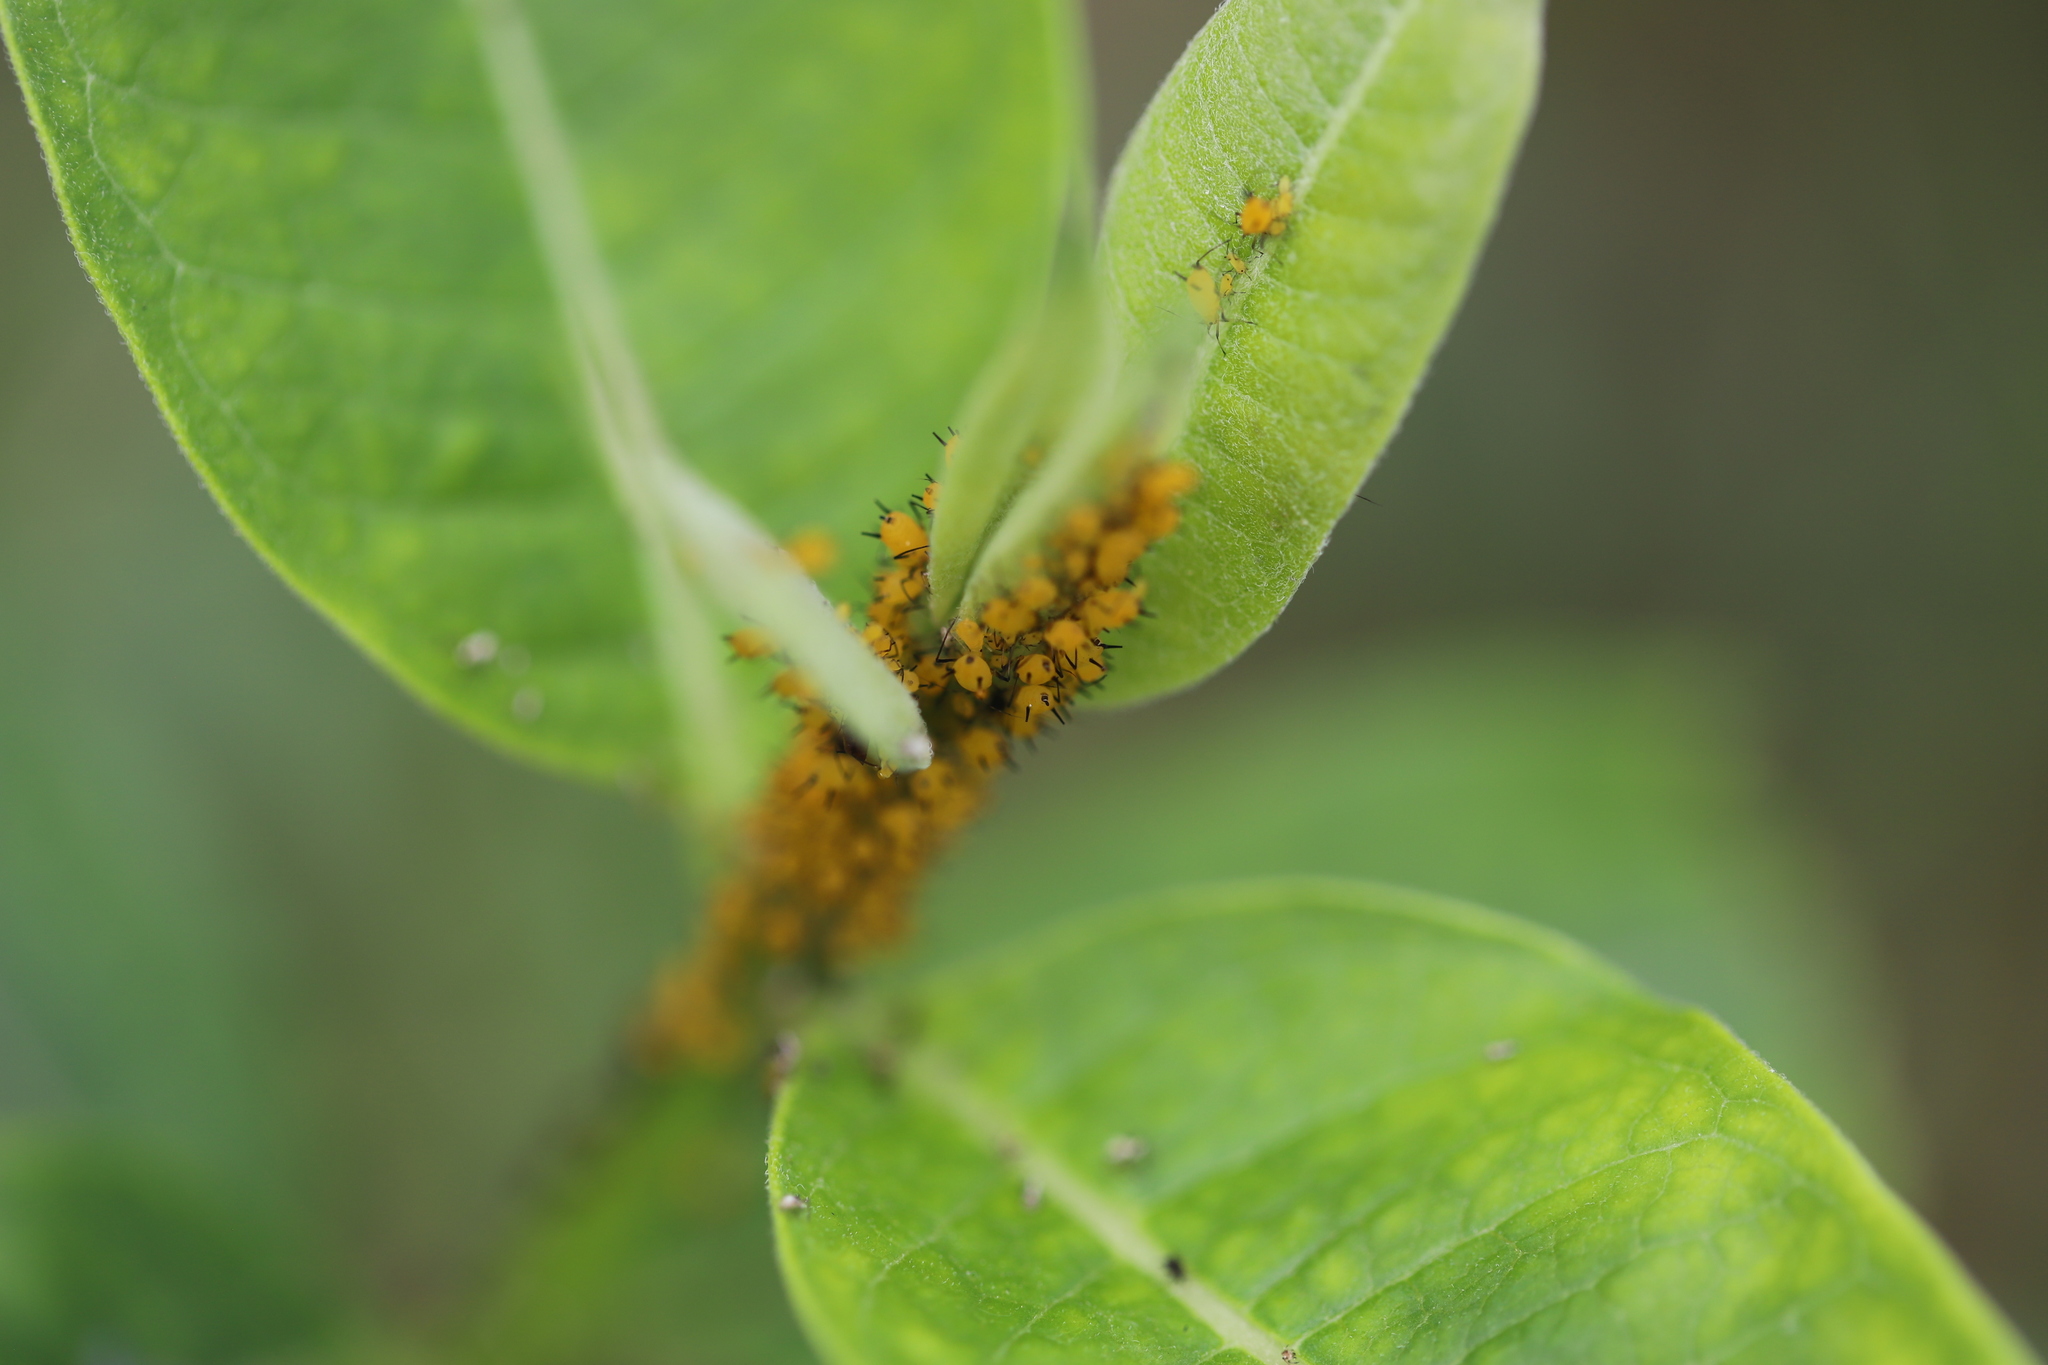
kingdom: Animalia
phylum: Arthropoda
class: Insecta
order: Hemiptera
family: Aphididae
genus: Aphis
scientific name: Aphis nerii
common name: Oleander aphid
